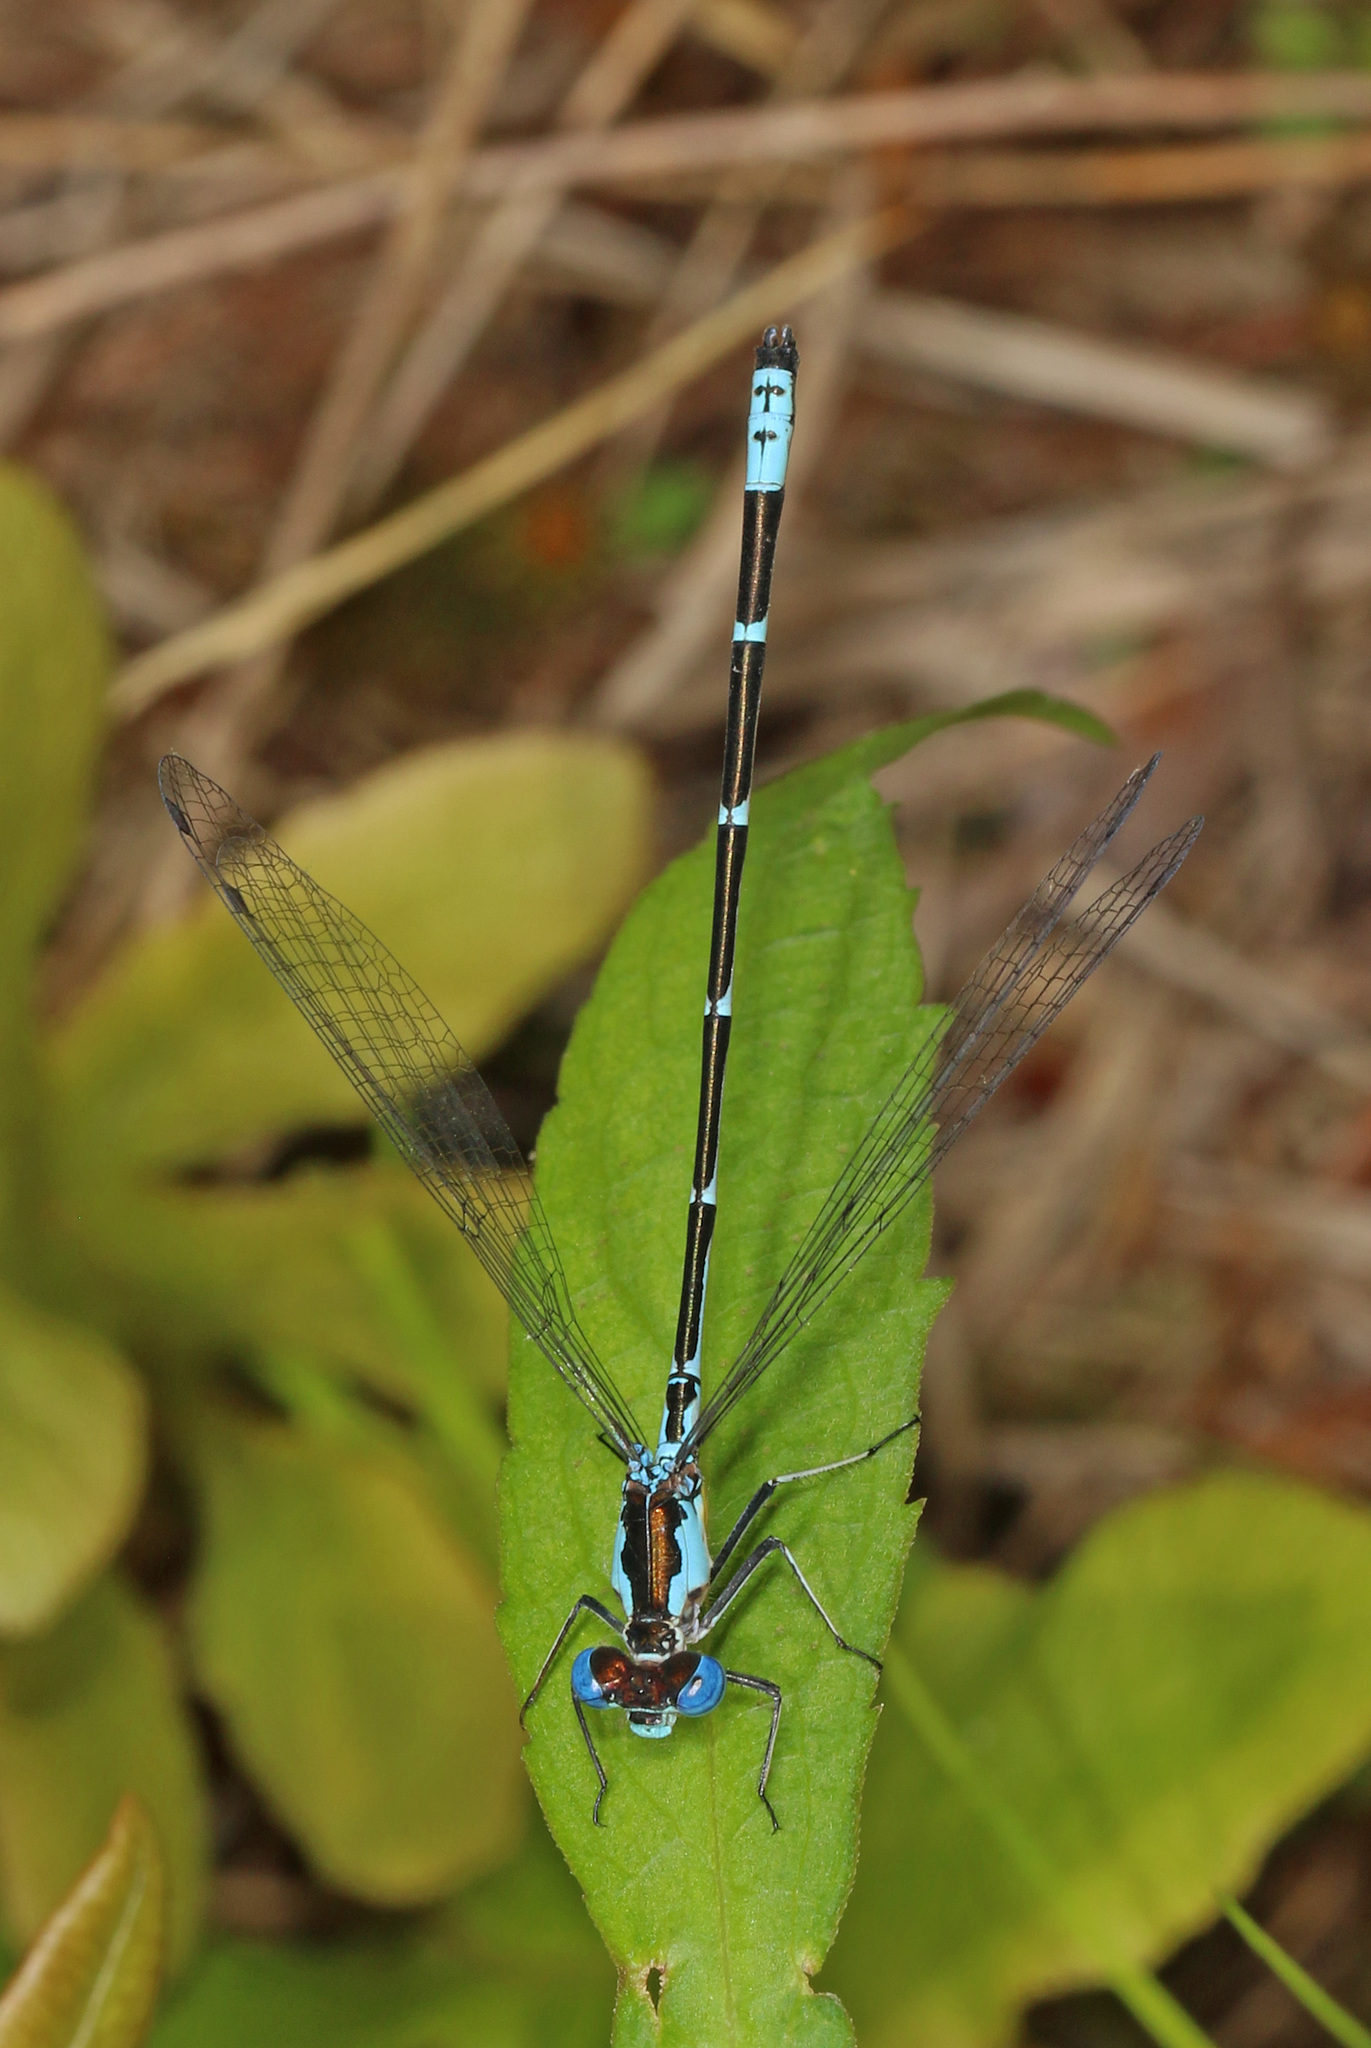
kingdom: Animalia
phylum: Arthropoda
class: Insecta
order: Odonata
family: Coenagrionidae
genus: Chromagrion
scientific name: Chromagrion conditum
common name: Aurora damsel
